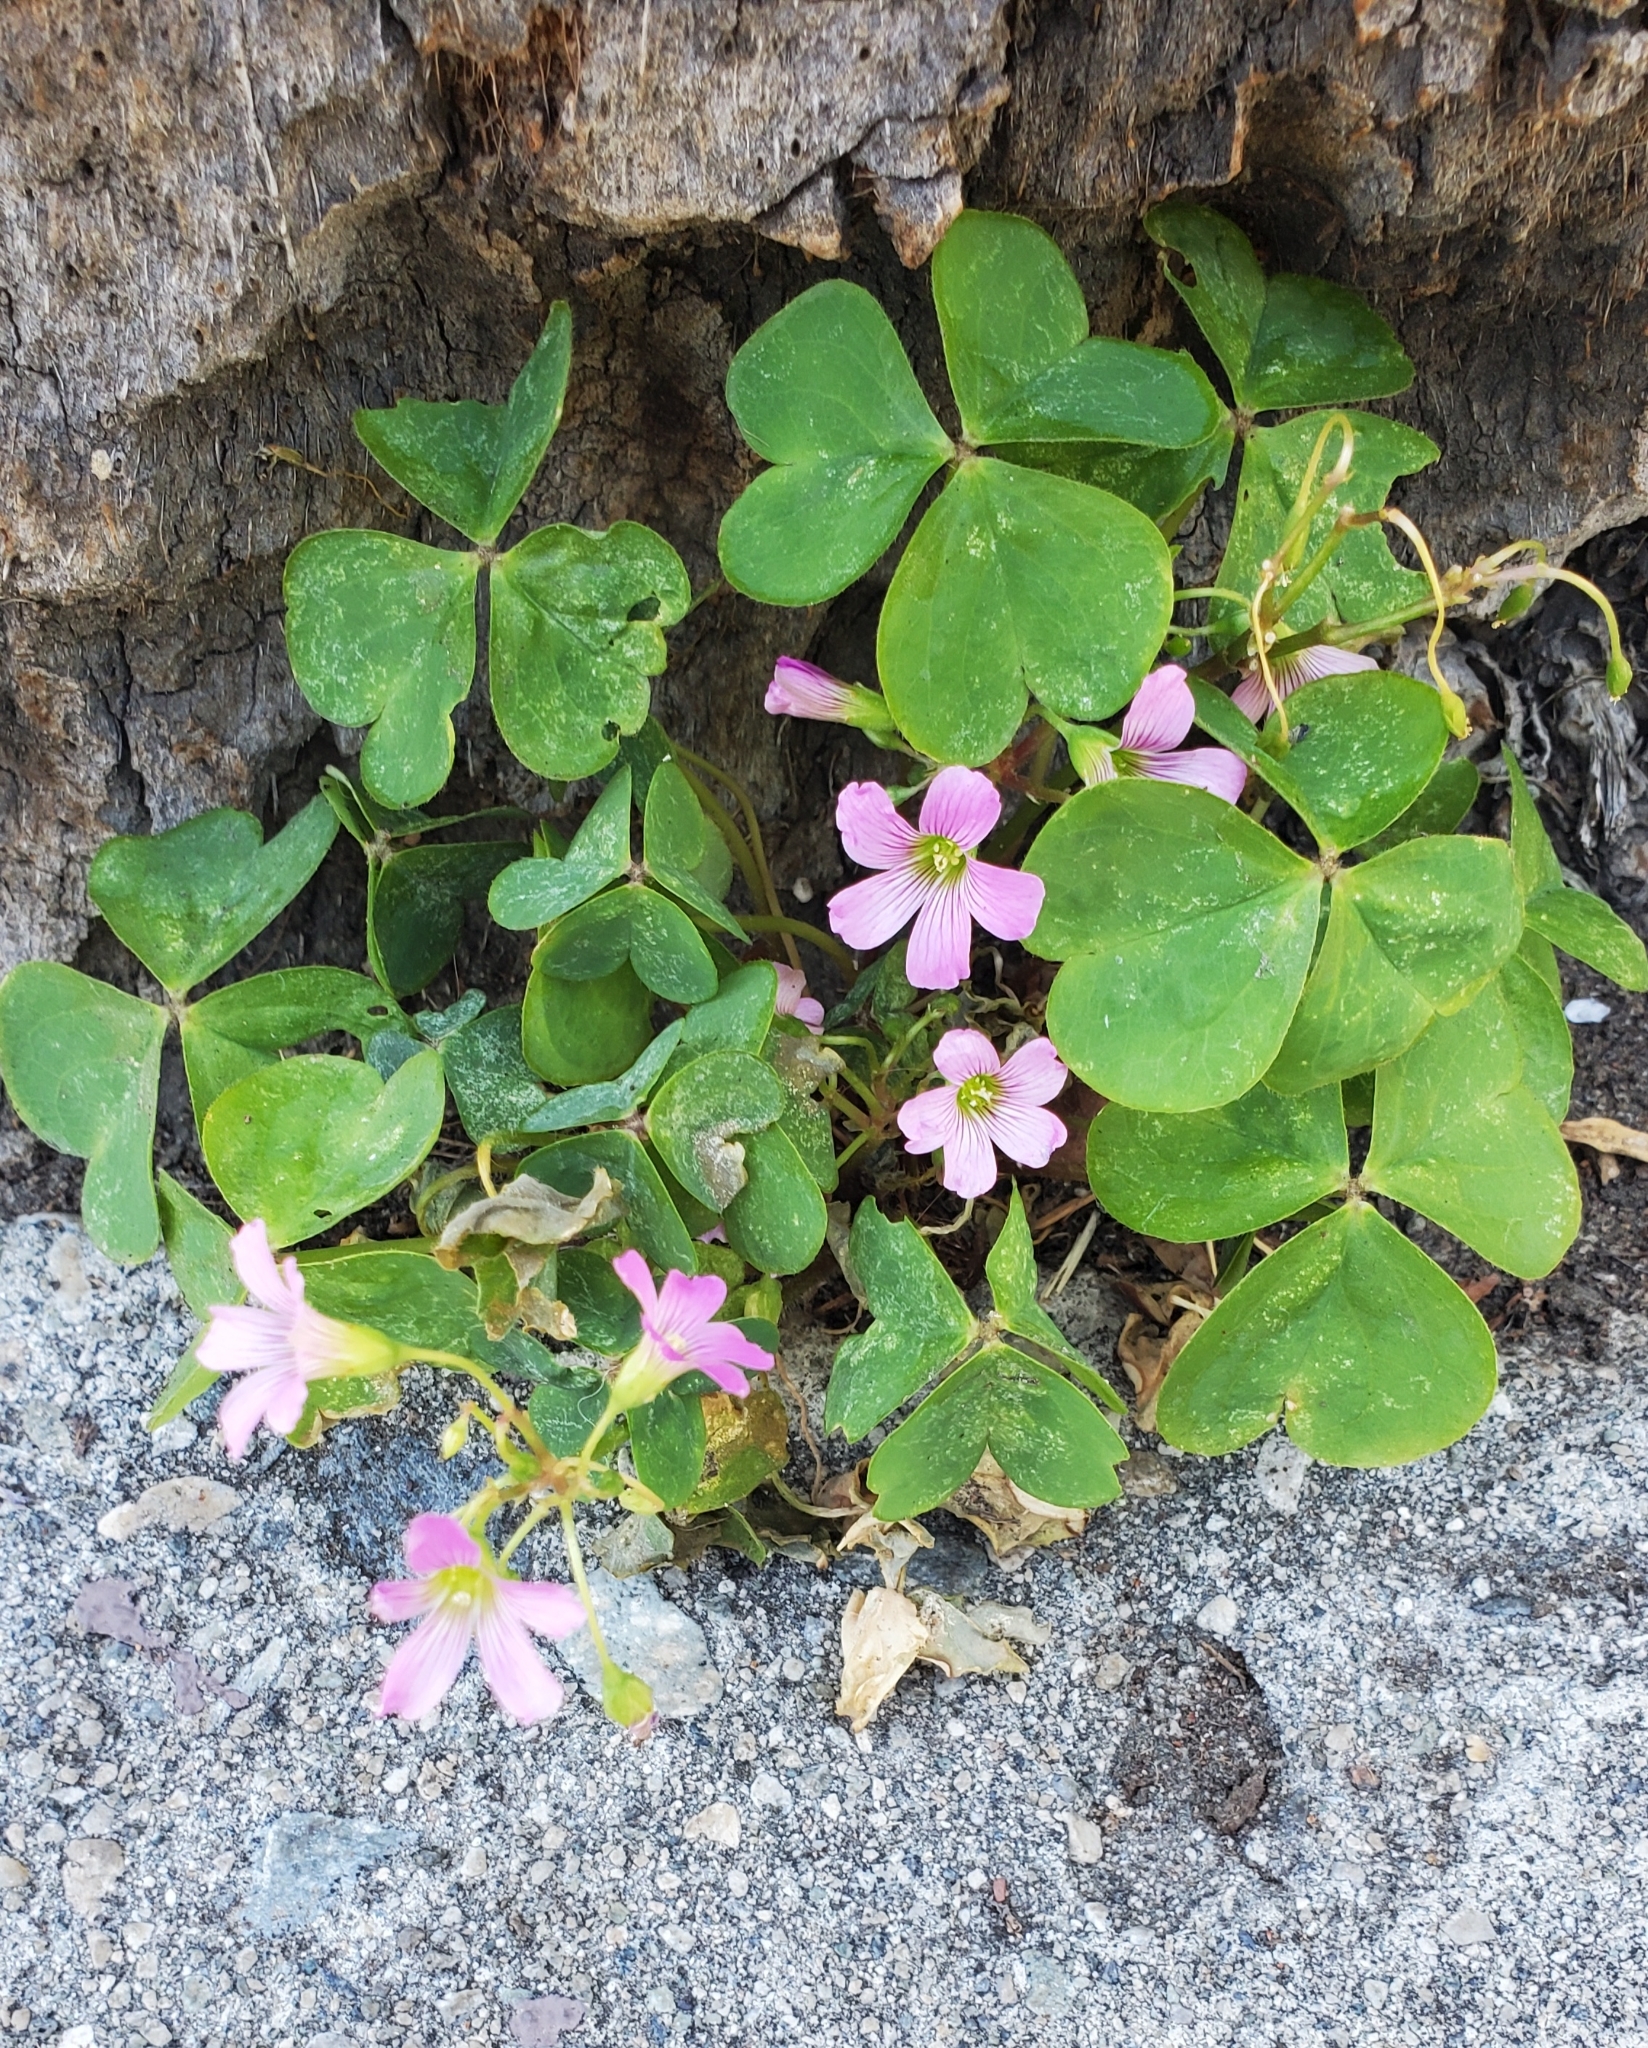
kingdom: Plantae
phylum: Tracheophyta
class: Magnoliopsida
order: Oxalidales
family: Oxalidaceae
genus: Oxalis
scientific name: Oxalis debilis
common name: Large-flowered pink-sorrel
